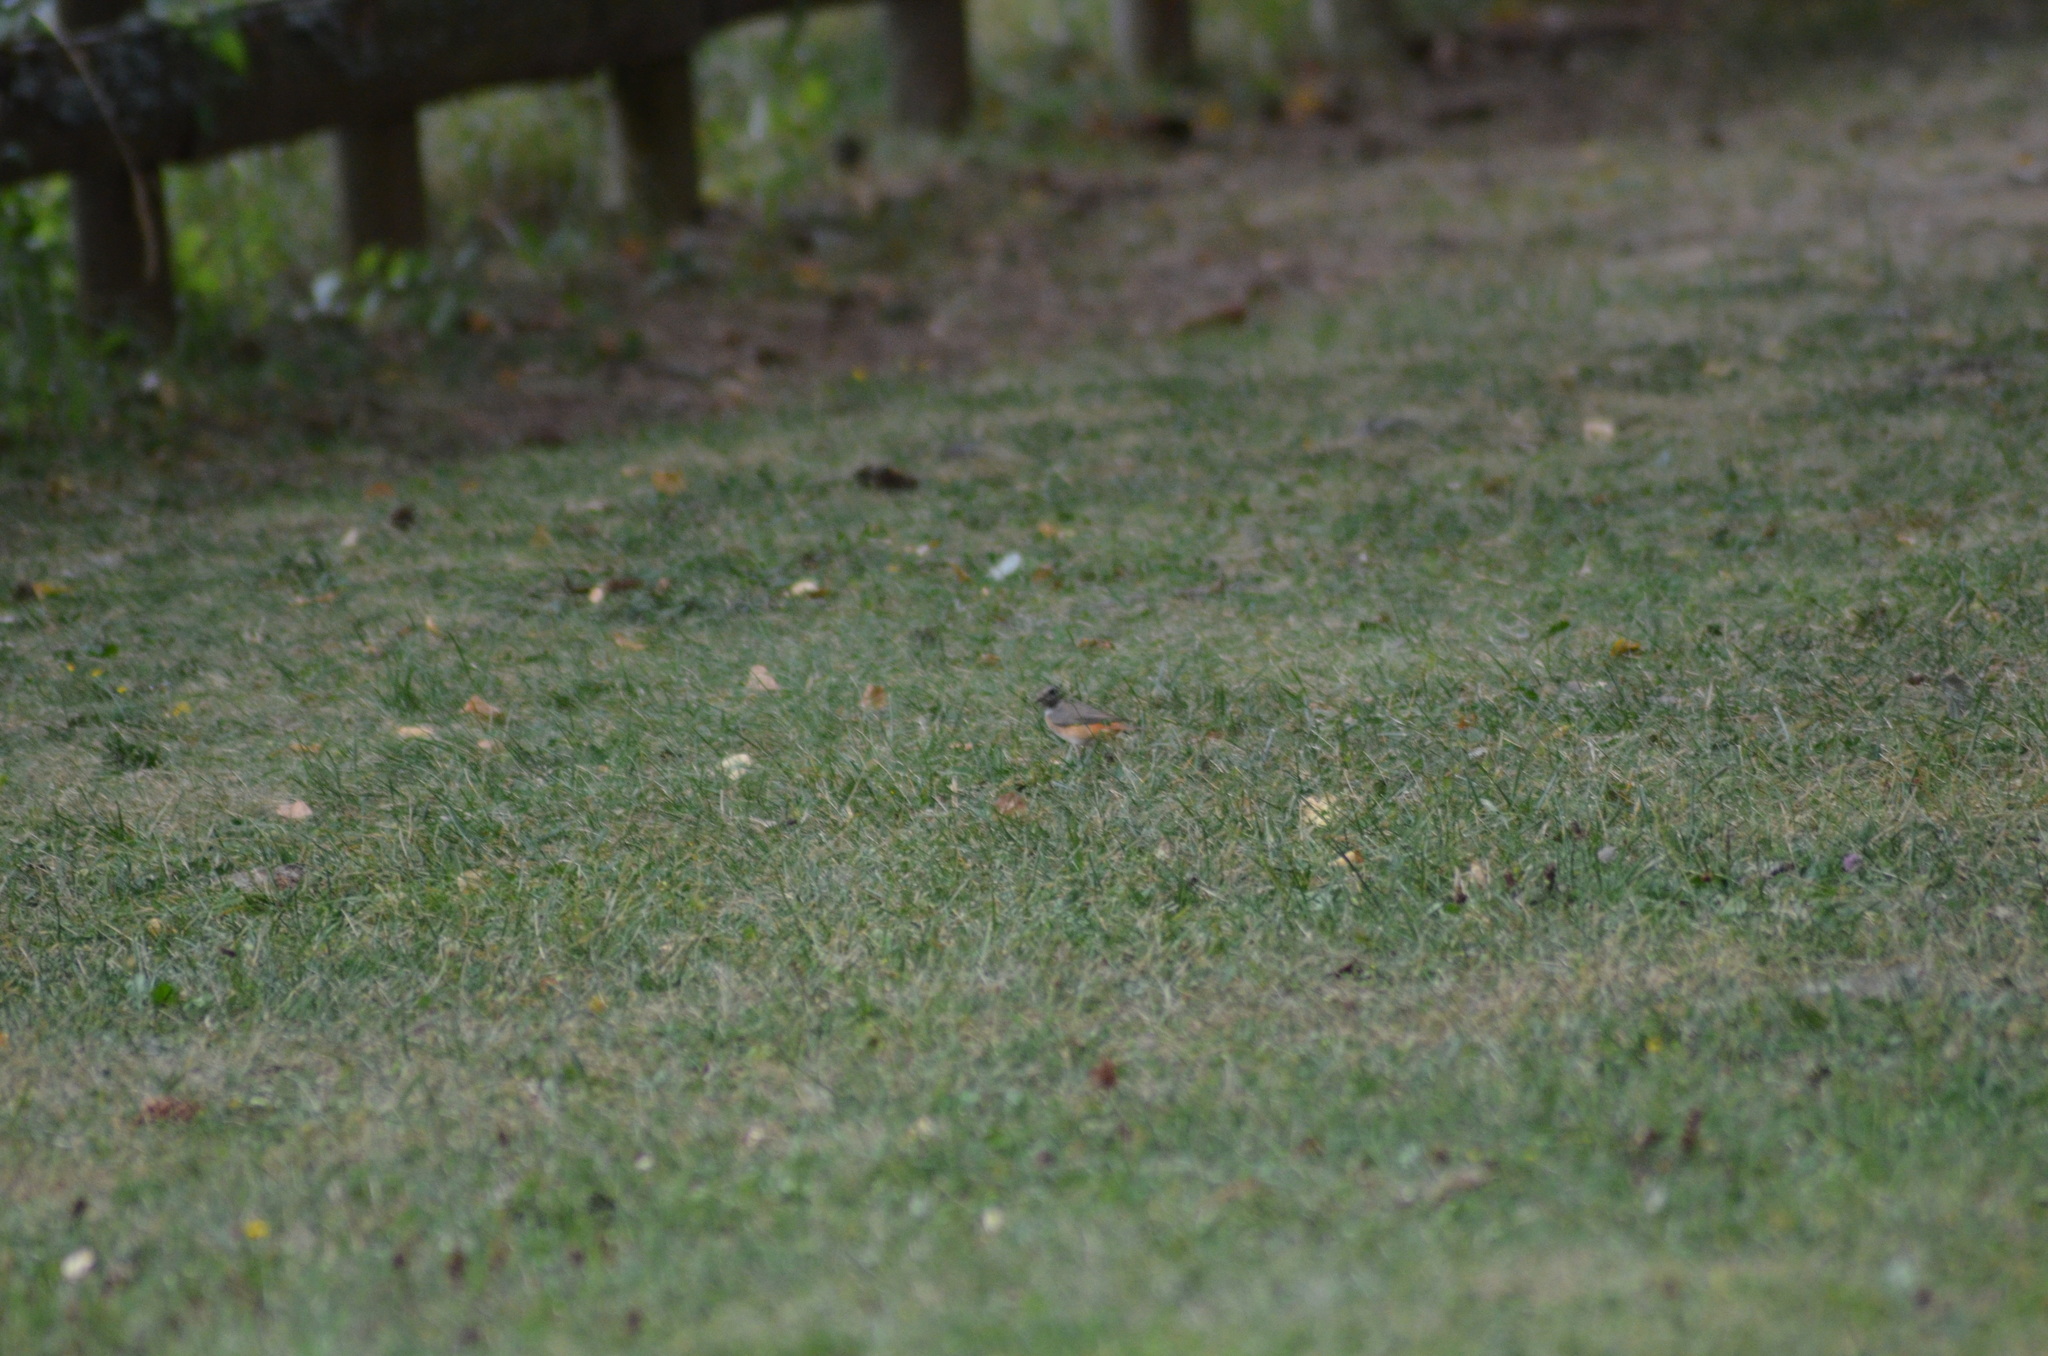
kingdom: Animalia
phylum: Chordata
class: Aves
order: Passeriformes
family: Muscicapidae
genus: Phoenicurus
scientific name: Phoenicurus phoenicurus
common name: Common redstart
